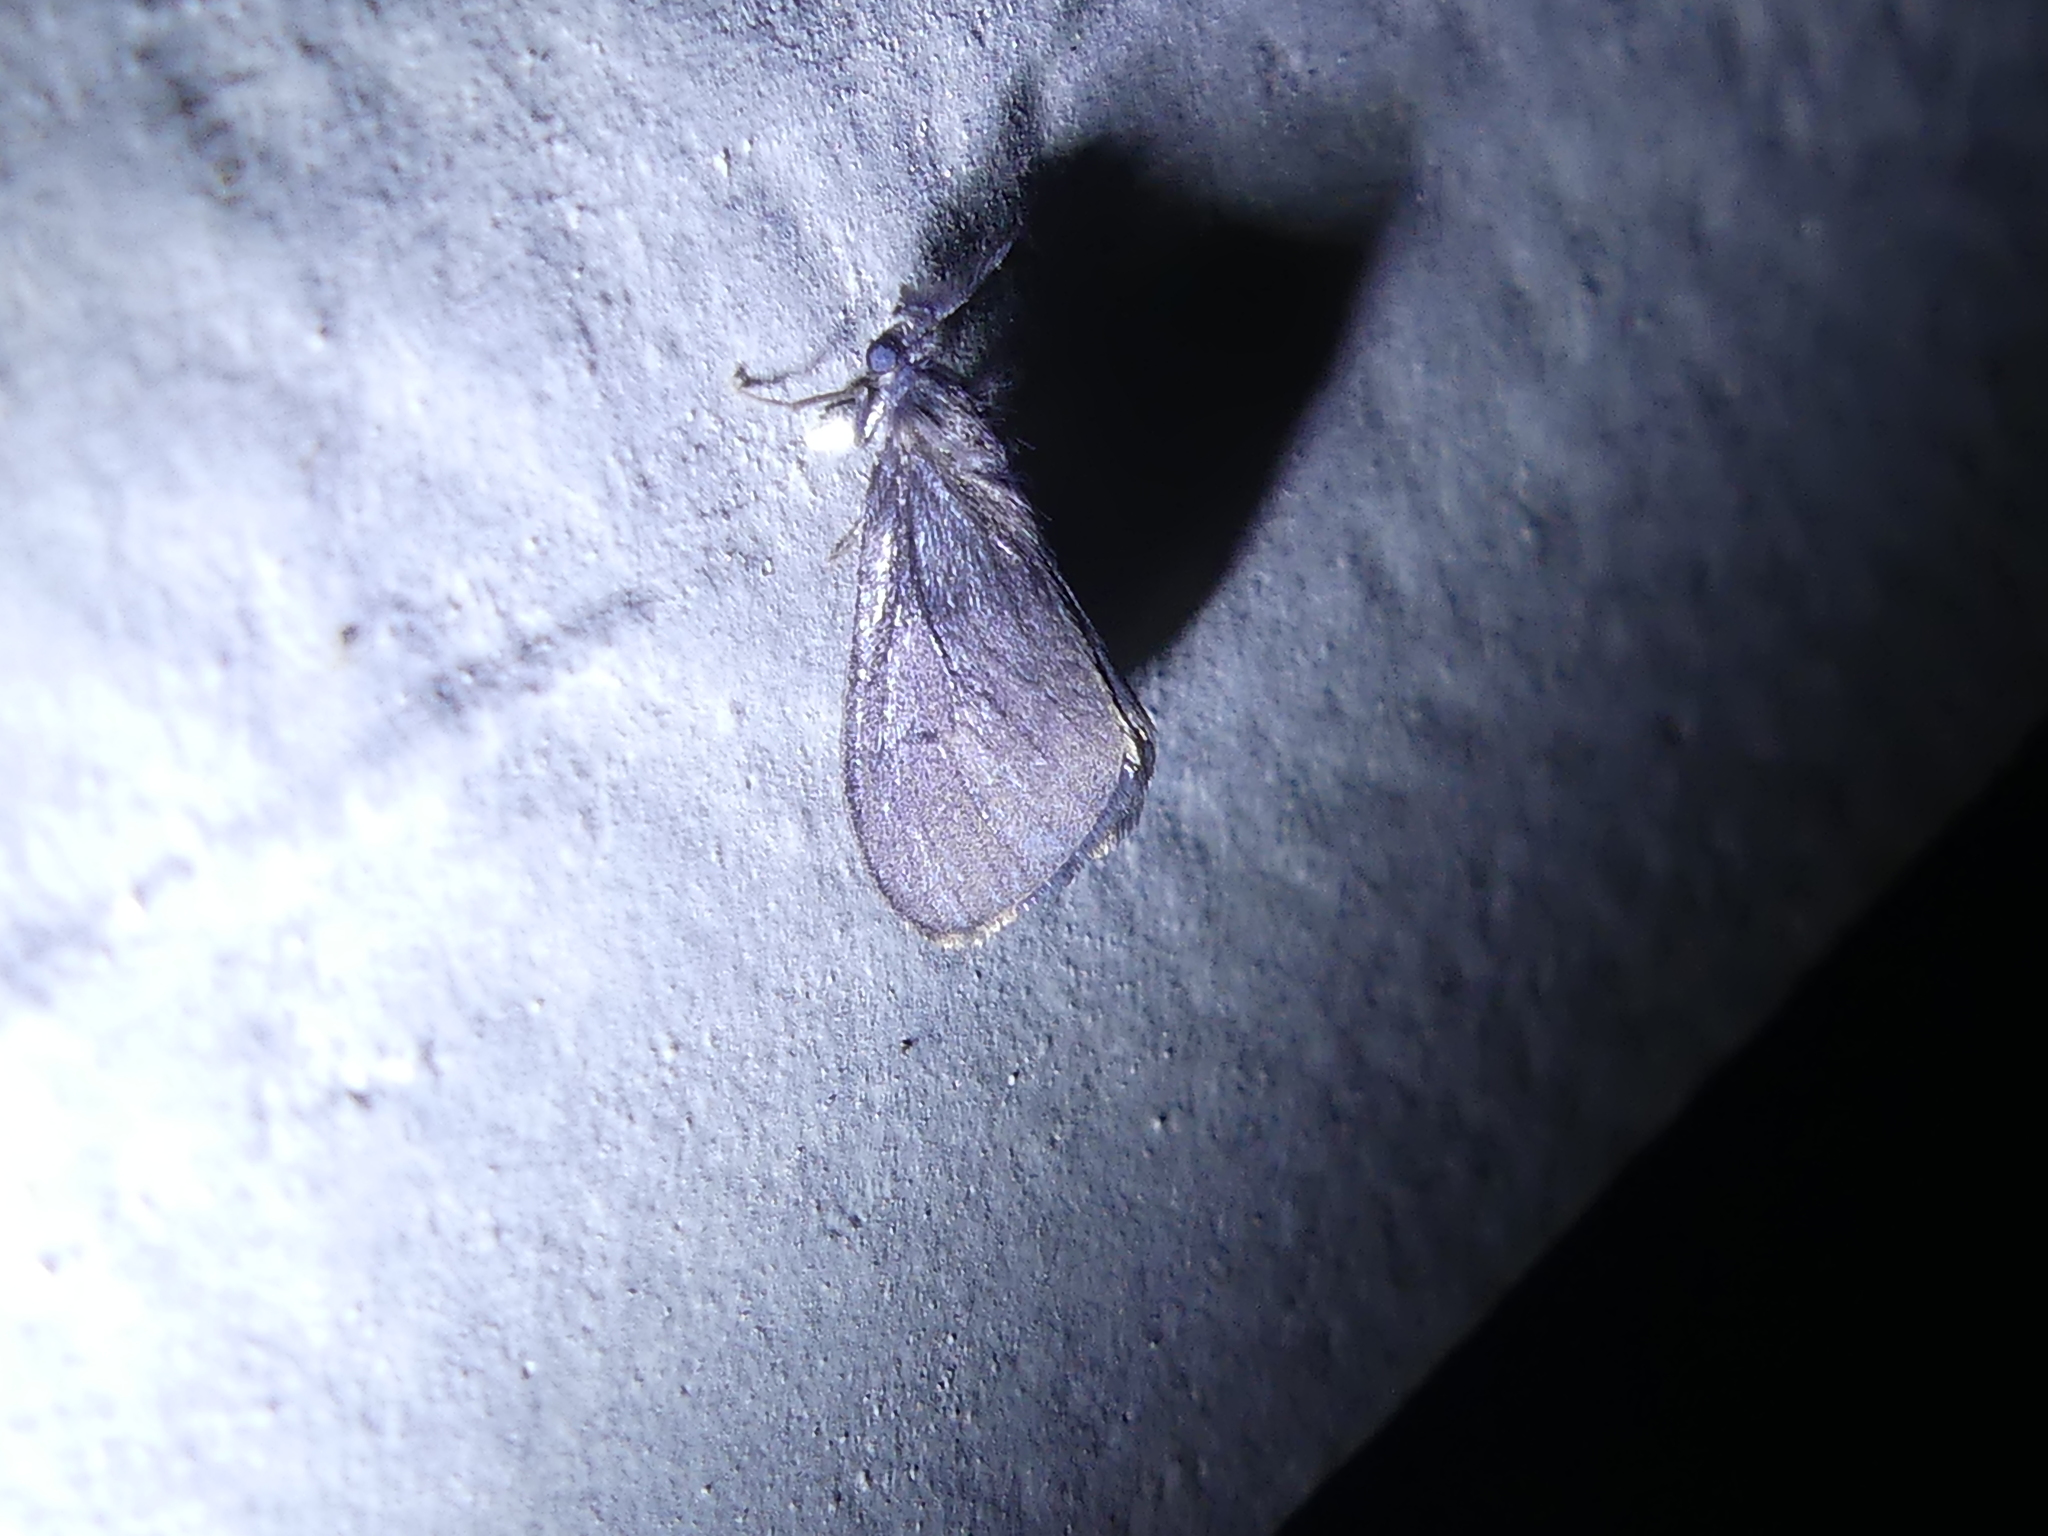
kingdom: Animalia
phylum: Arthropoda
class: Insecta
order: Lepidoptera
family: Psychidae
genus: Cryptothelea
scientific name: Cryptothelea gloverii
